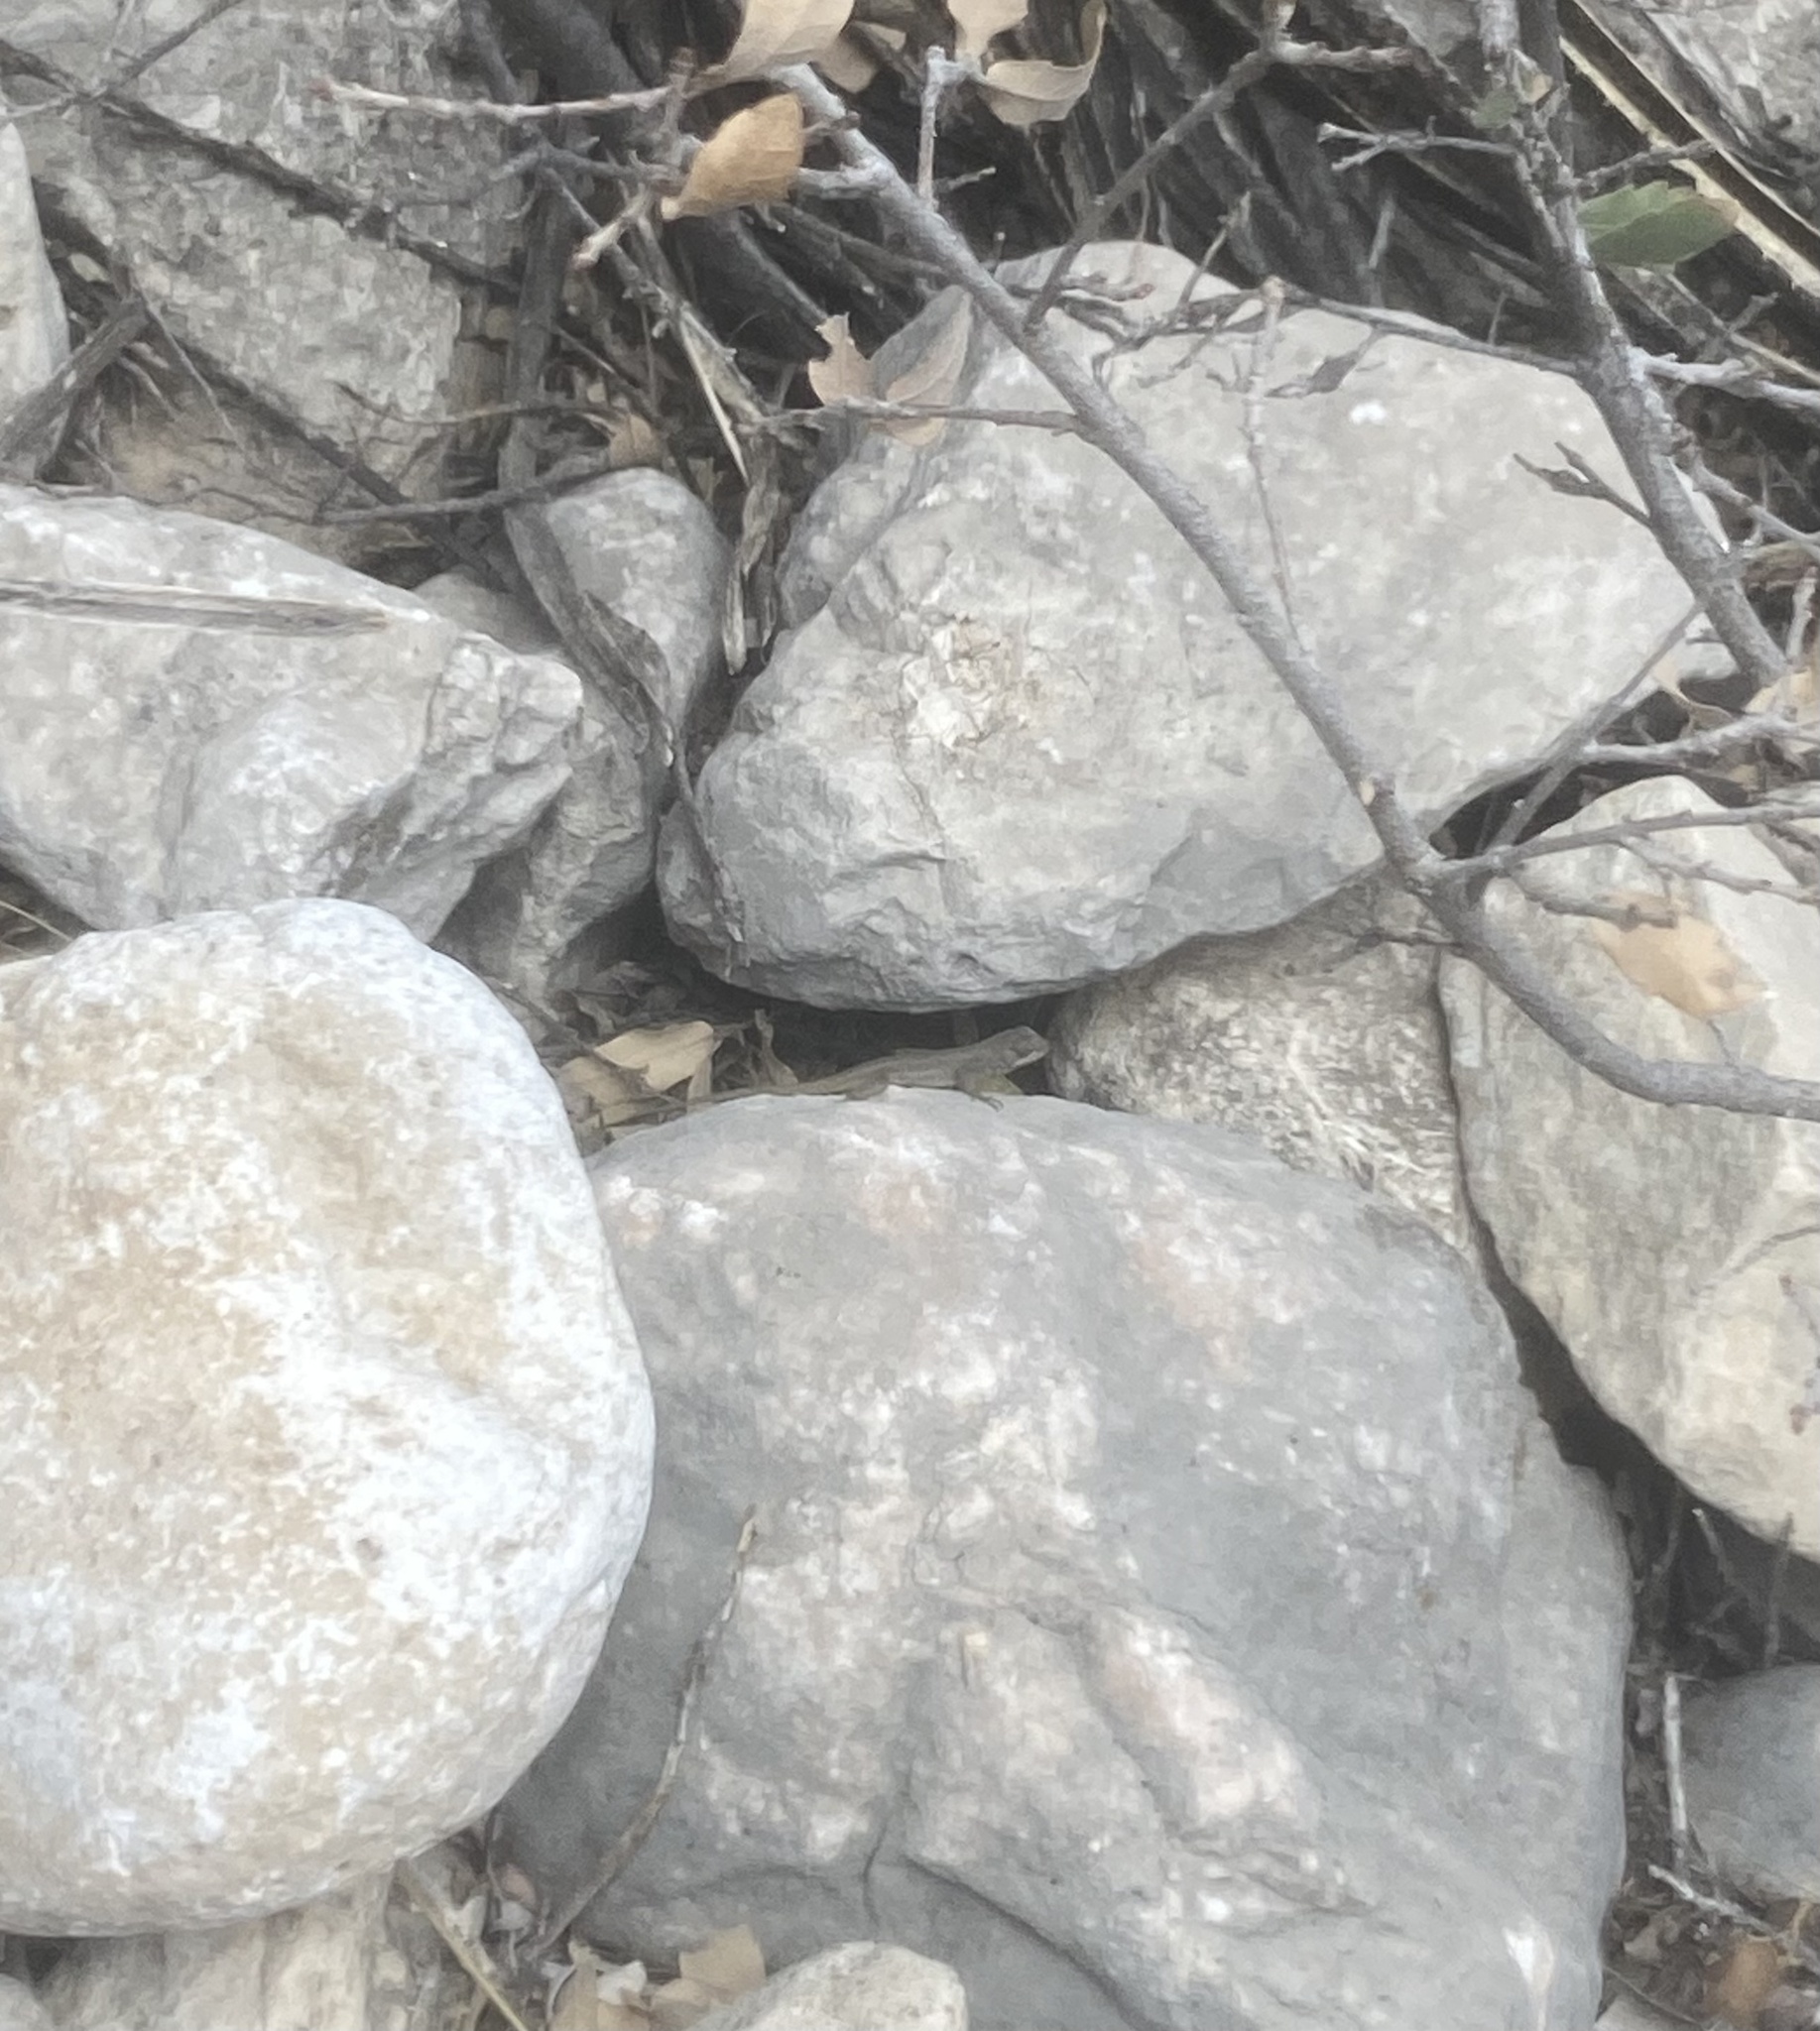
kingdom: Animalia
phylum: Chordata
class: Squamata
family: Phrynosomatidae
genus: Sceloporus
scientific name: Sceloporus cowlesi
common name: White sands prairie lizard
